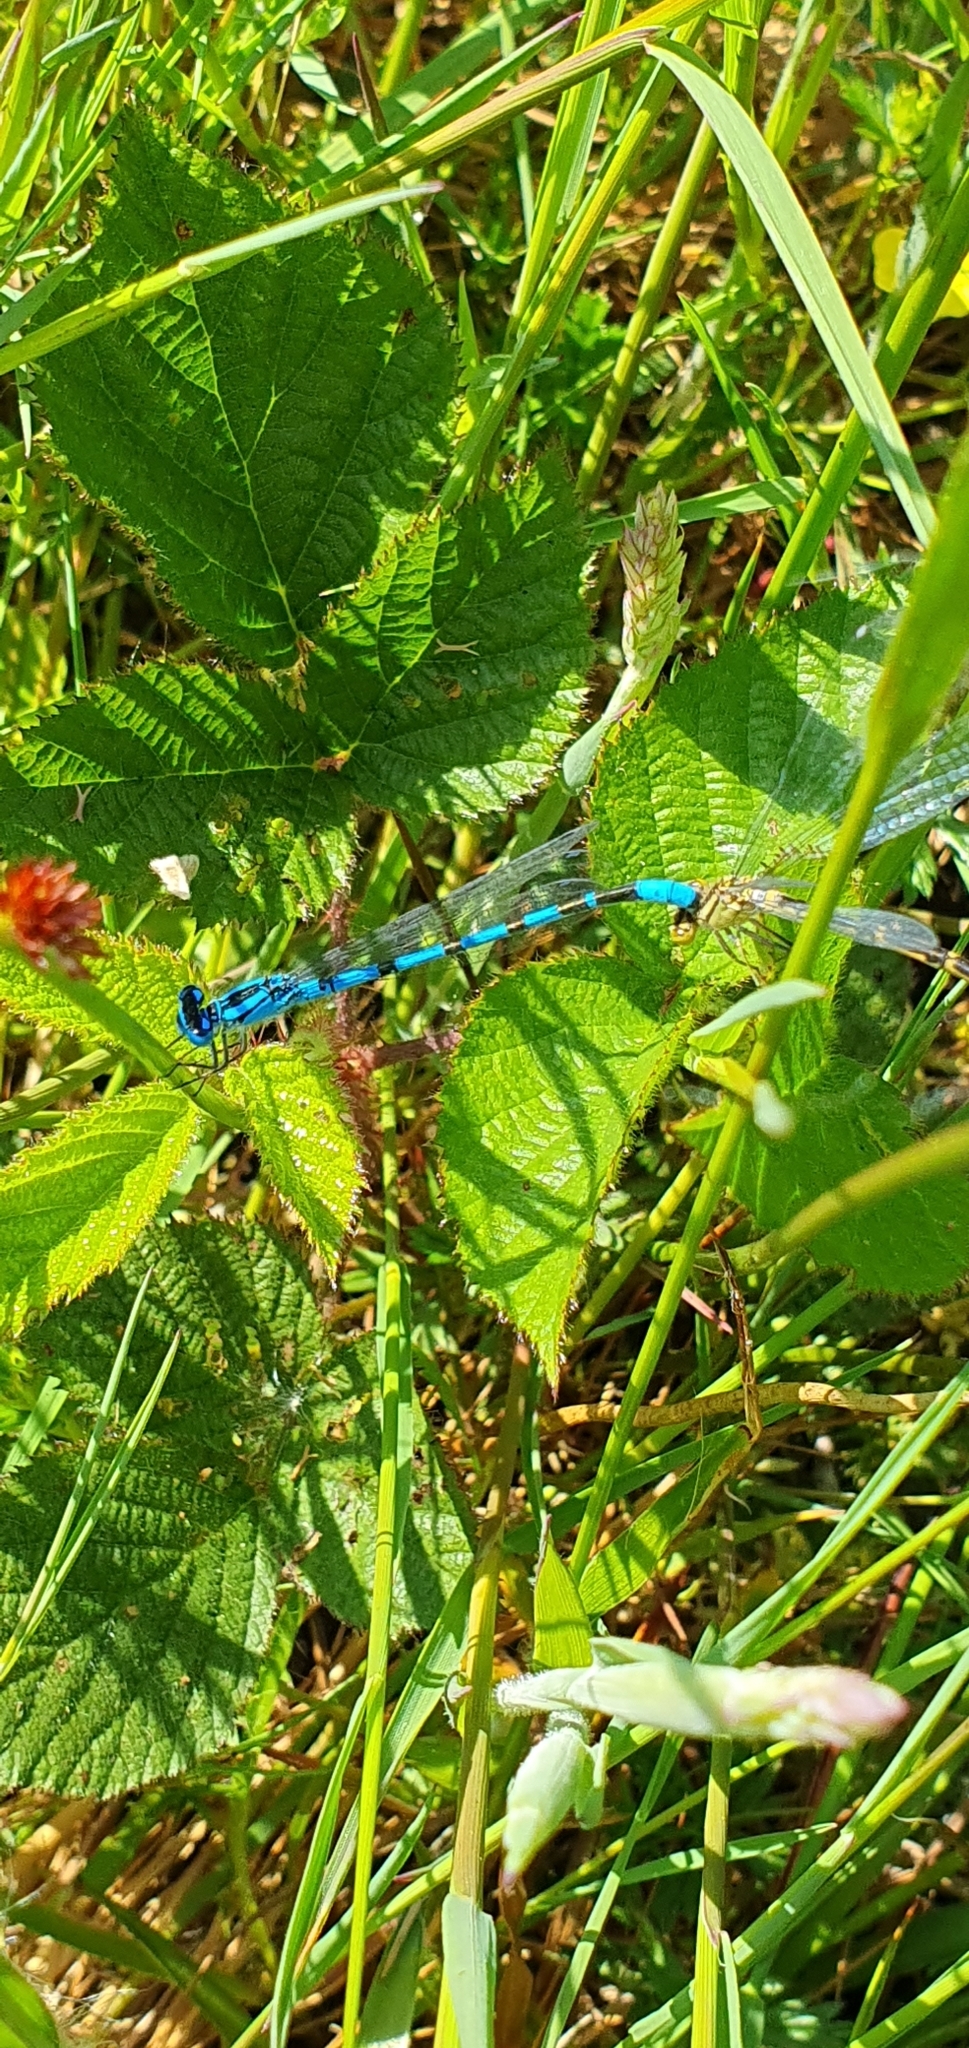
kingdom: Animalia
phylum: Arthropoda
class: Insecta
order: Odonata
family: Coenagrionidae
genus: Enallagma
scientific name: Enallagma cyathigerum
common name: Common blue damselfly
